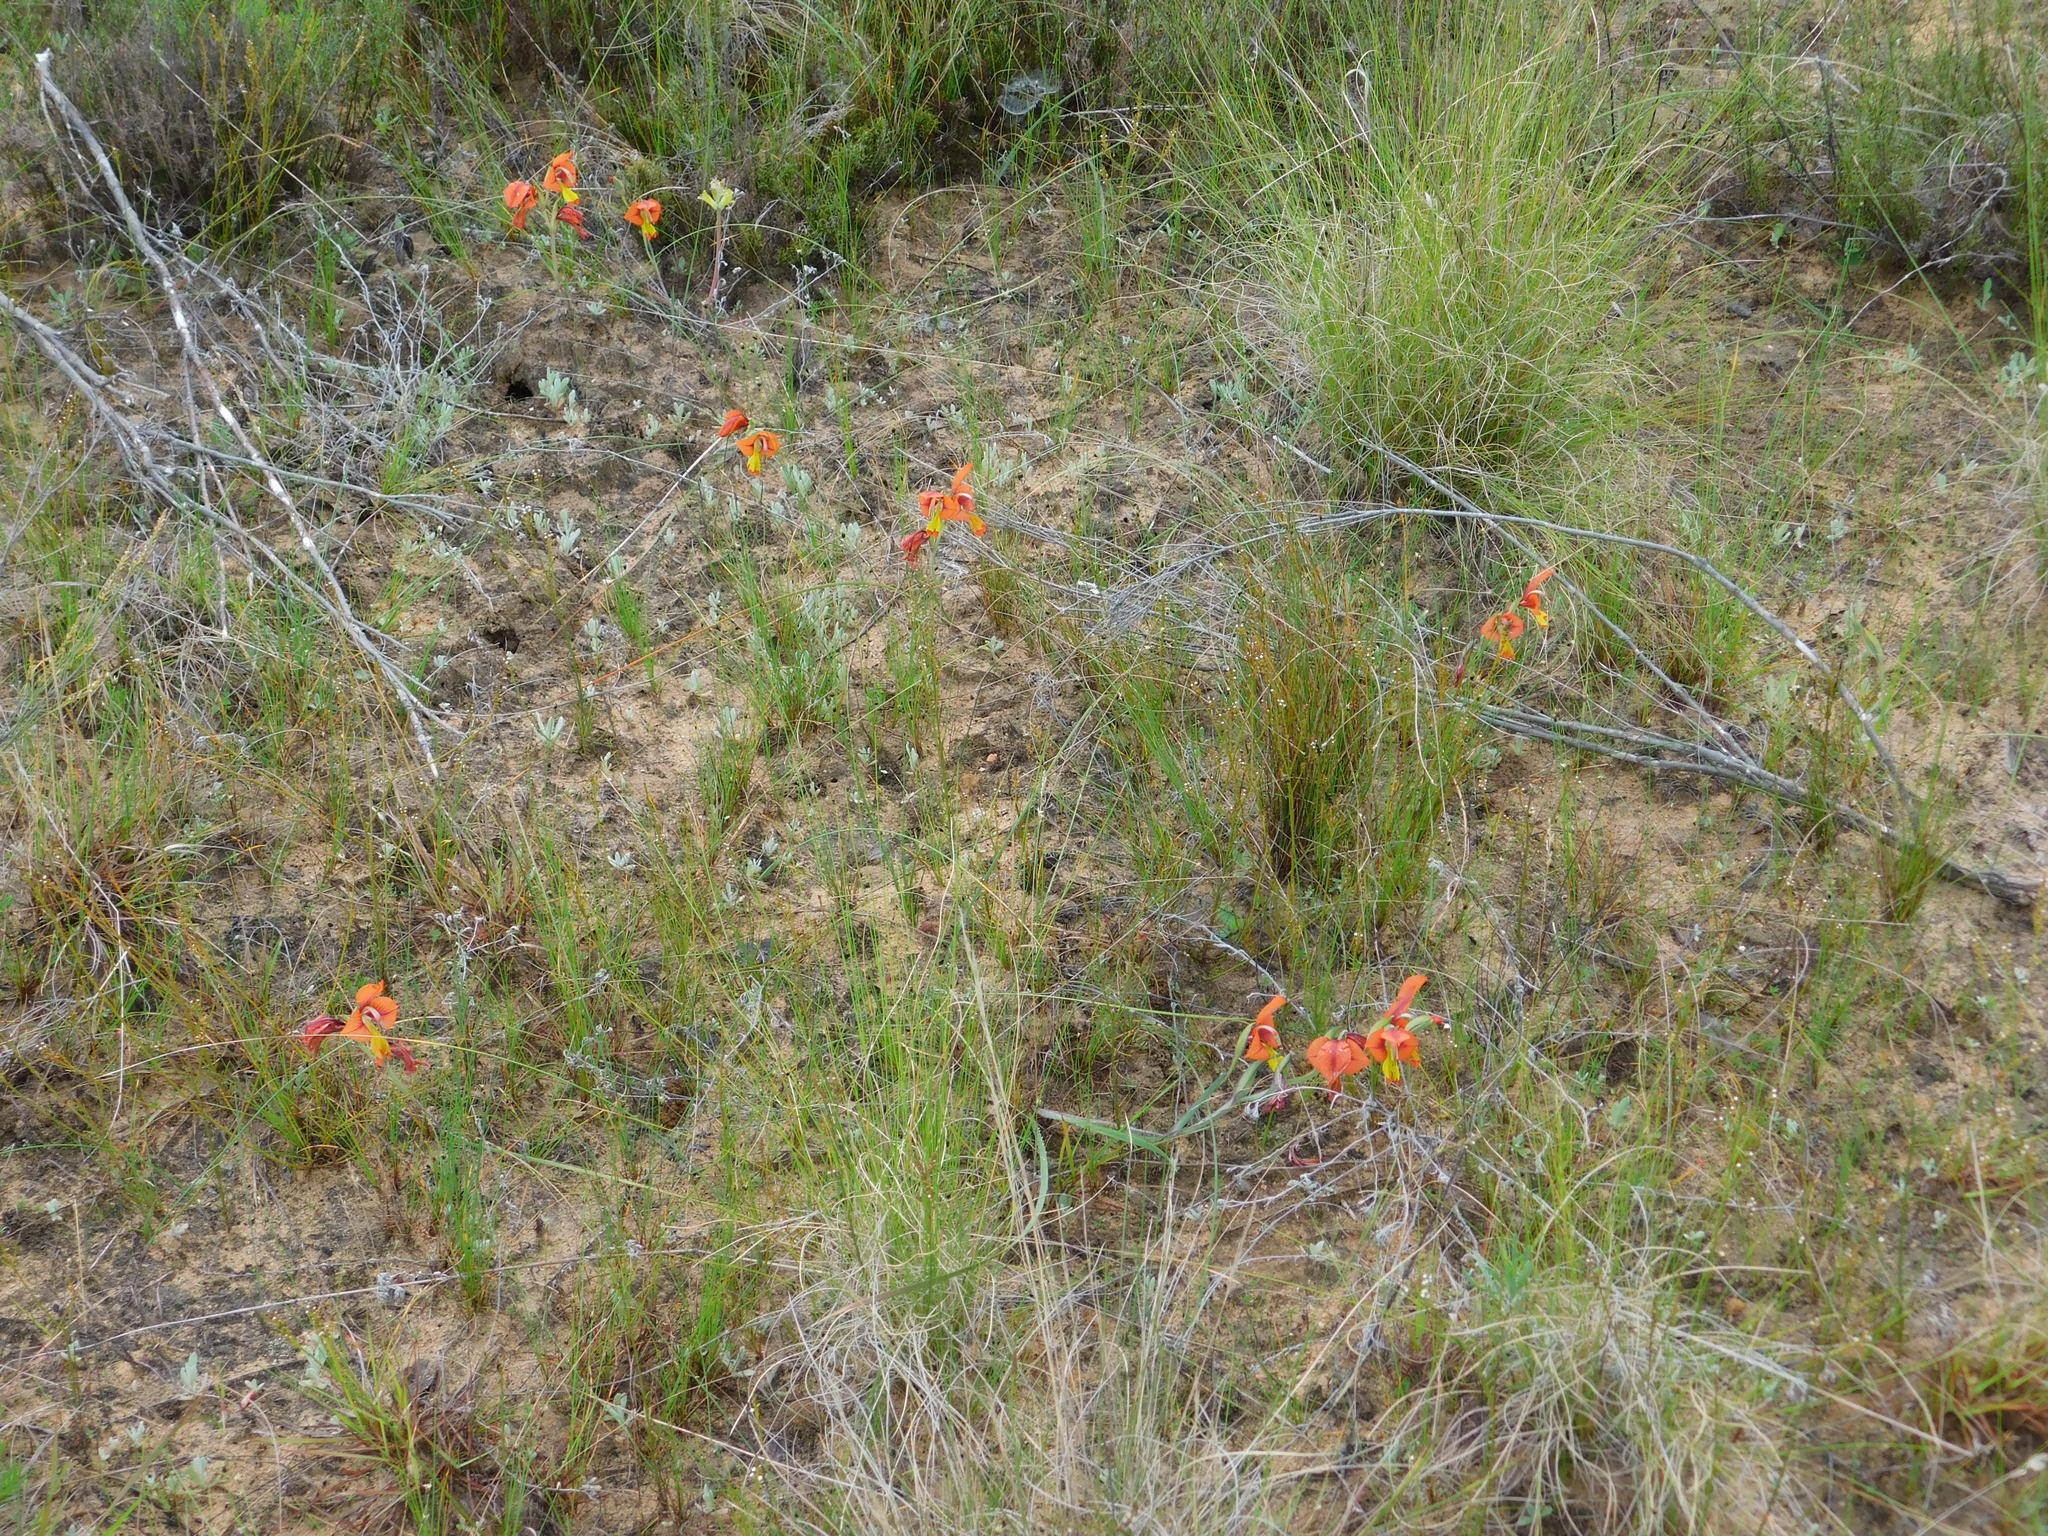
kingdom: Plantae
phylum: Tracheophyta
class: Liliopsida
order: Asparagales
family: Iridaceae
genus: Gladiolus
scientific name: Gladiolus alatus
